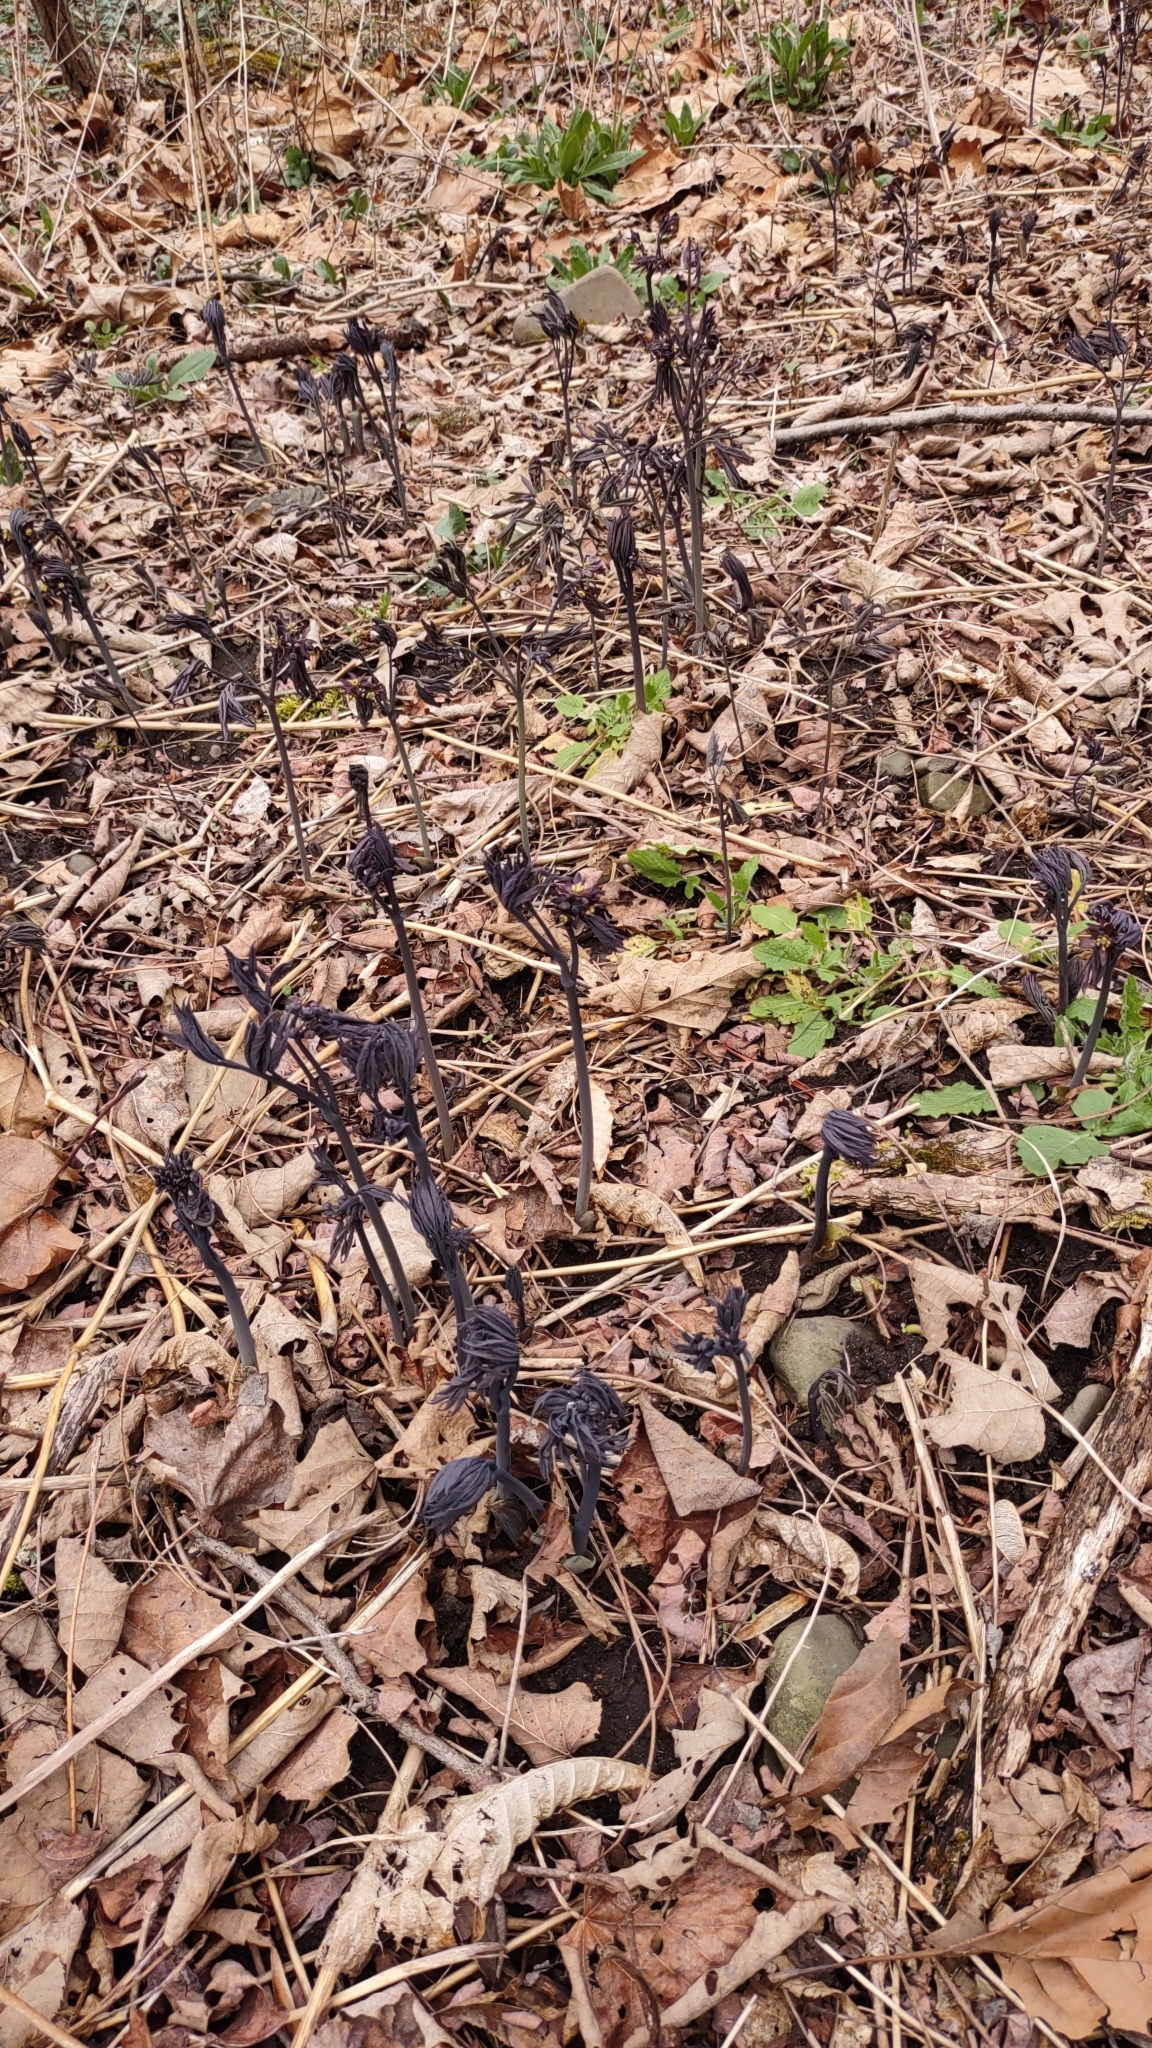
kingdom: Plantae
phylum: Tracheophyta
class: Magnoliopsida
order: Ranunculales
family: Berberidaceae
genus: Caulophyllum
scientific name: Caulophyllum giganteum
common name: Blue cohosh
